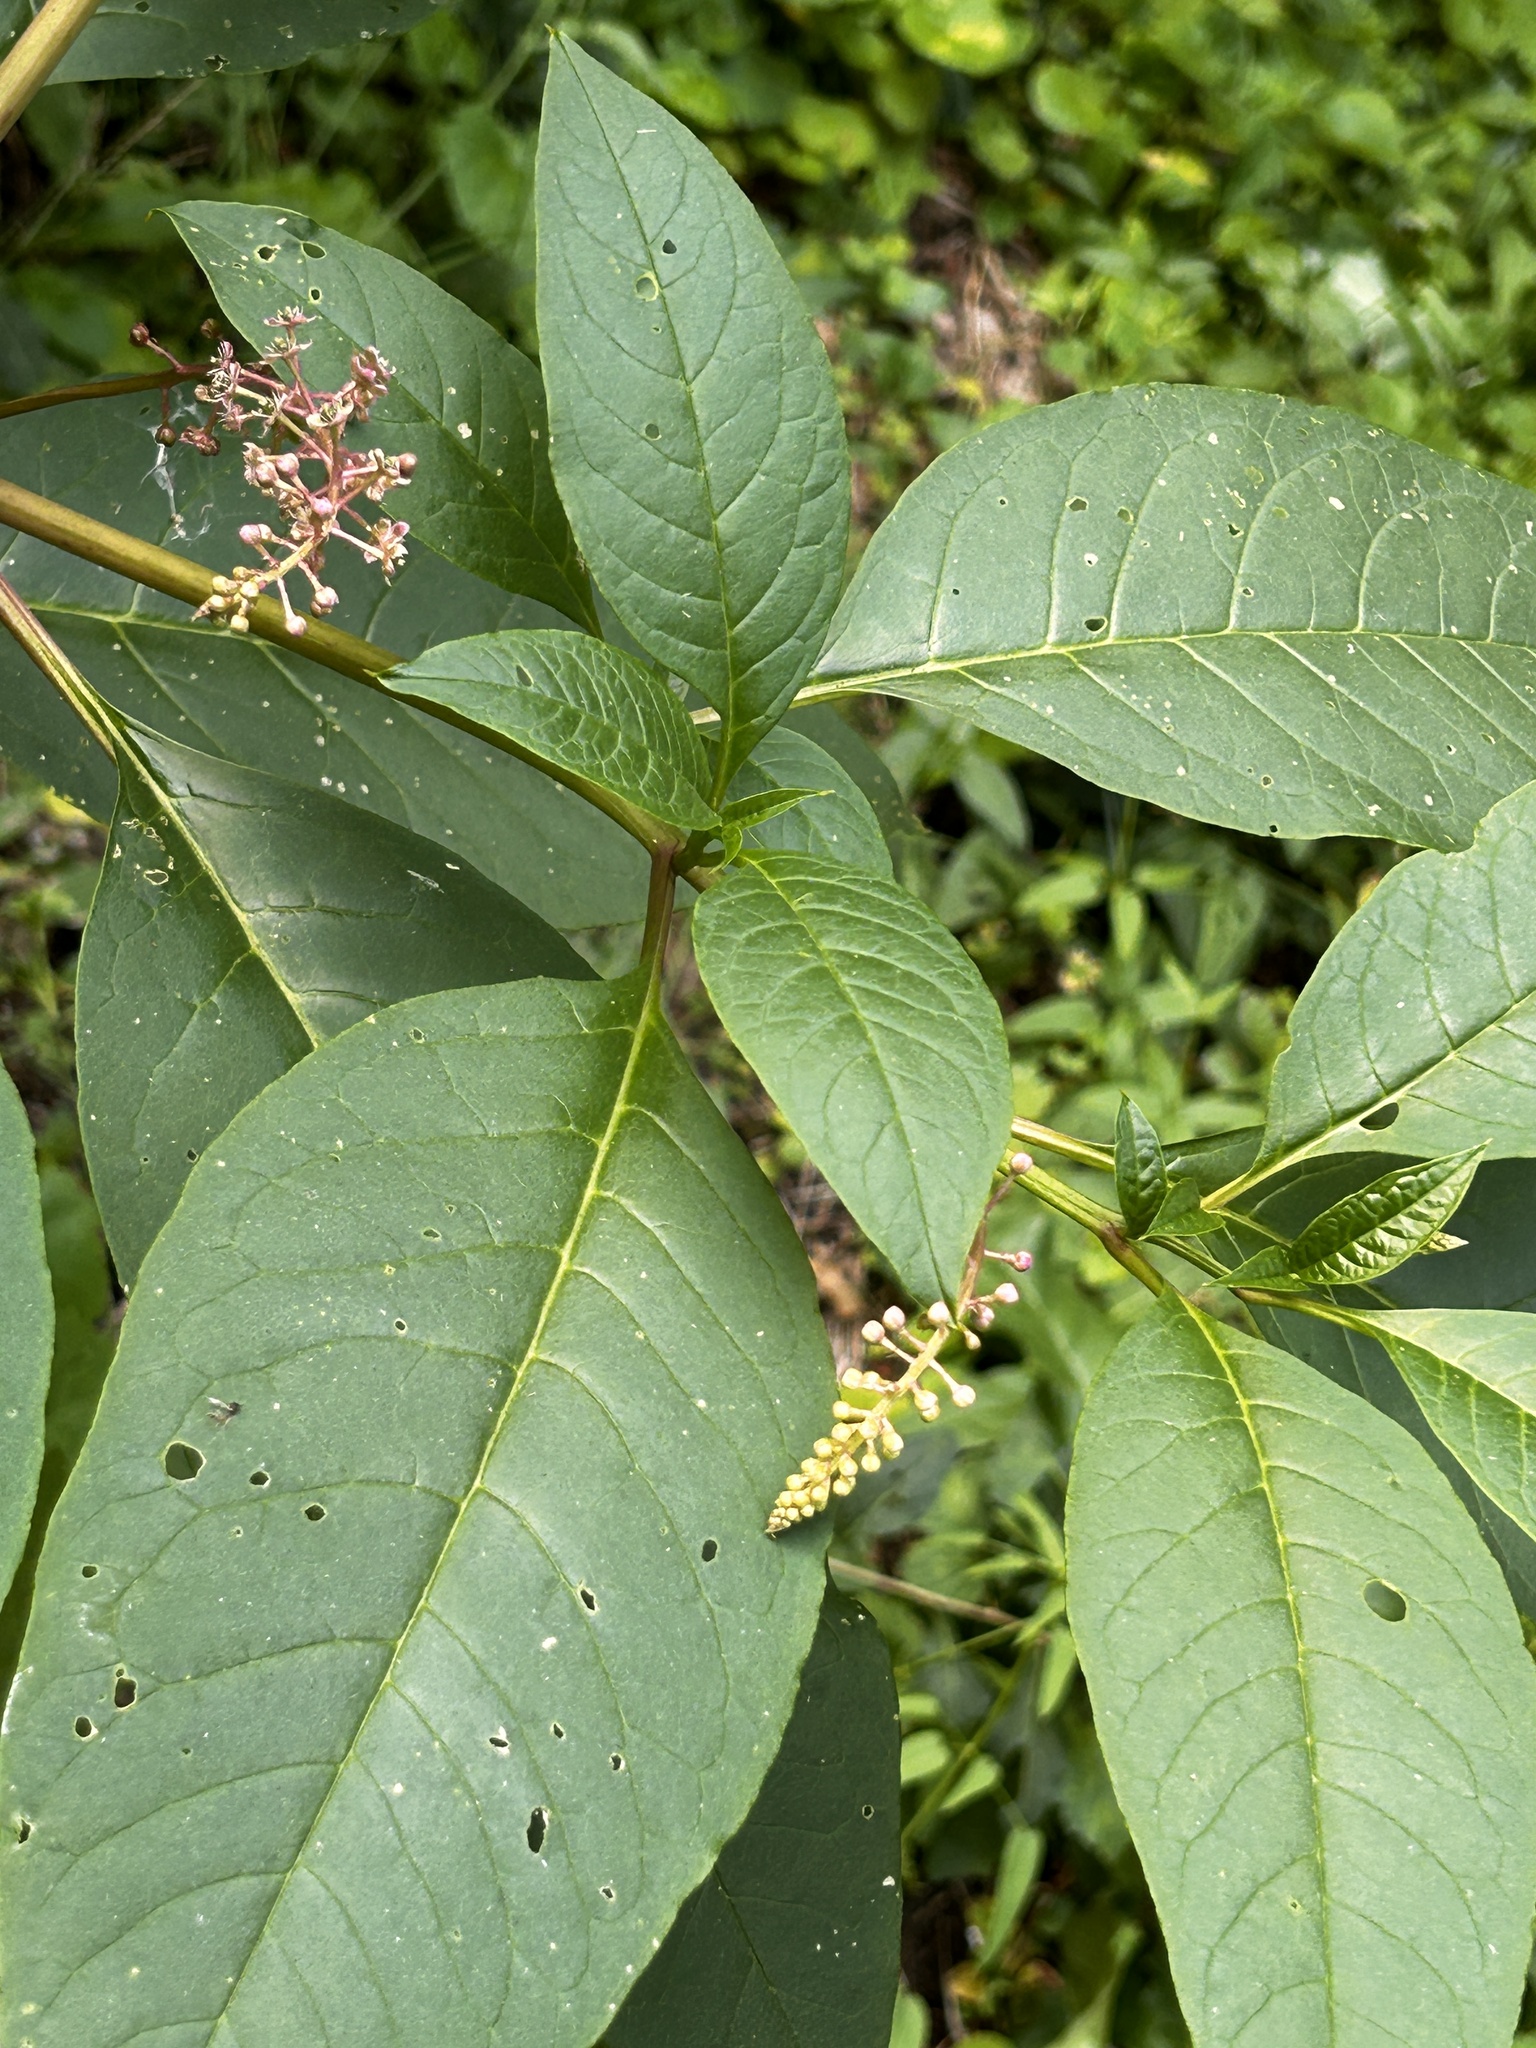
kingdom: Plantae
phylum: Tracheophyta
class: Magnoliopsida
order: Caryophyllales
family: Phytolaccaceae
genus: Phytolacca
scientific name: Phytolacca americana
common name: American pokeweed
